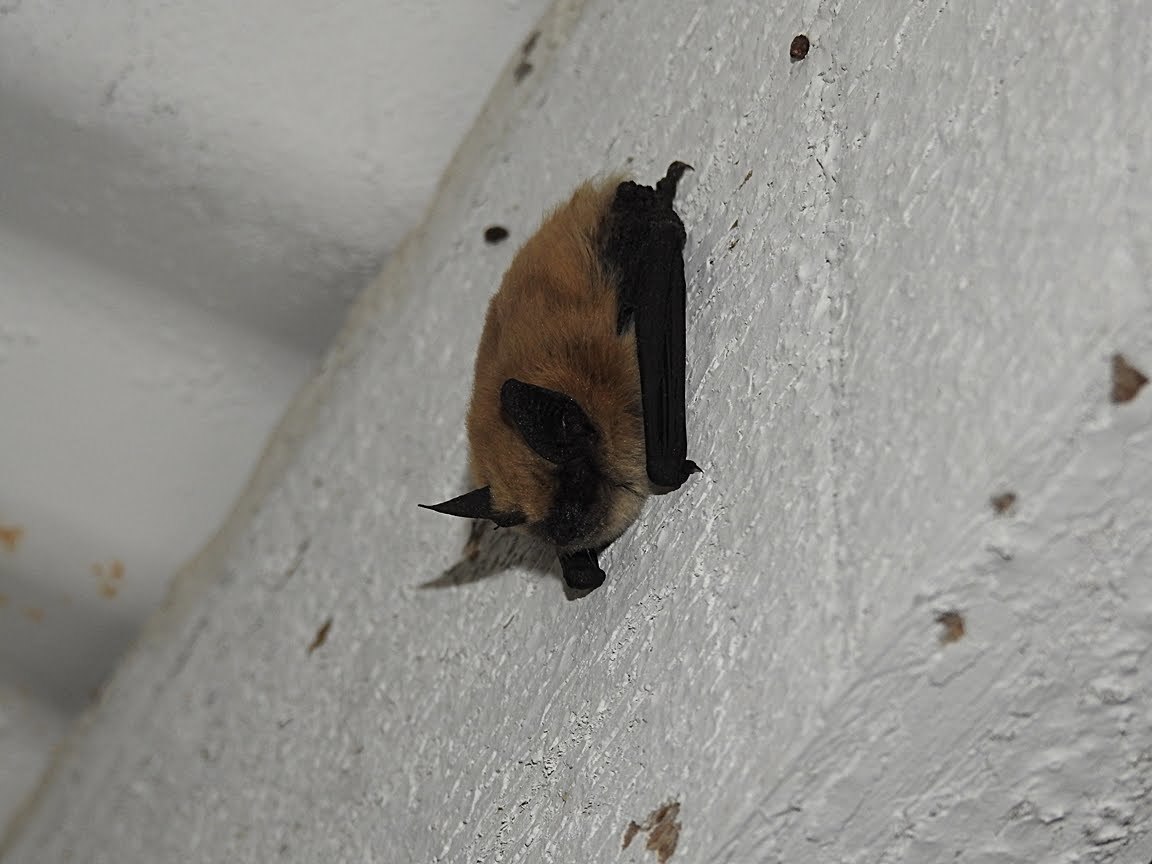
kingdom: Animalia
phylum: Chordata
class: Mammalia
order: Chiroptera
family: Vespertilionidae
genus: Myotis
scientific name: Myotis ciliolabrum
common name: Western small-footed myotis
